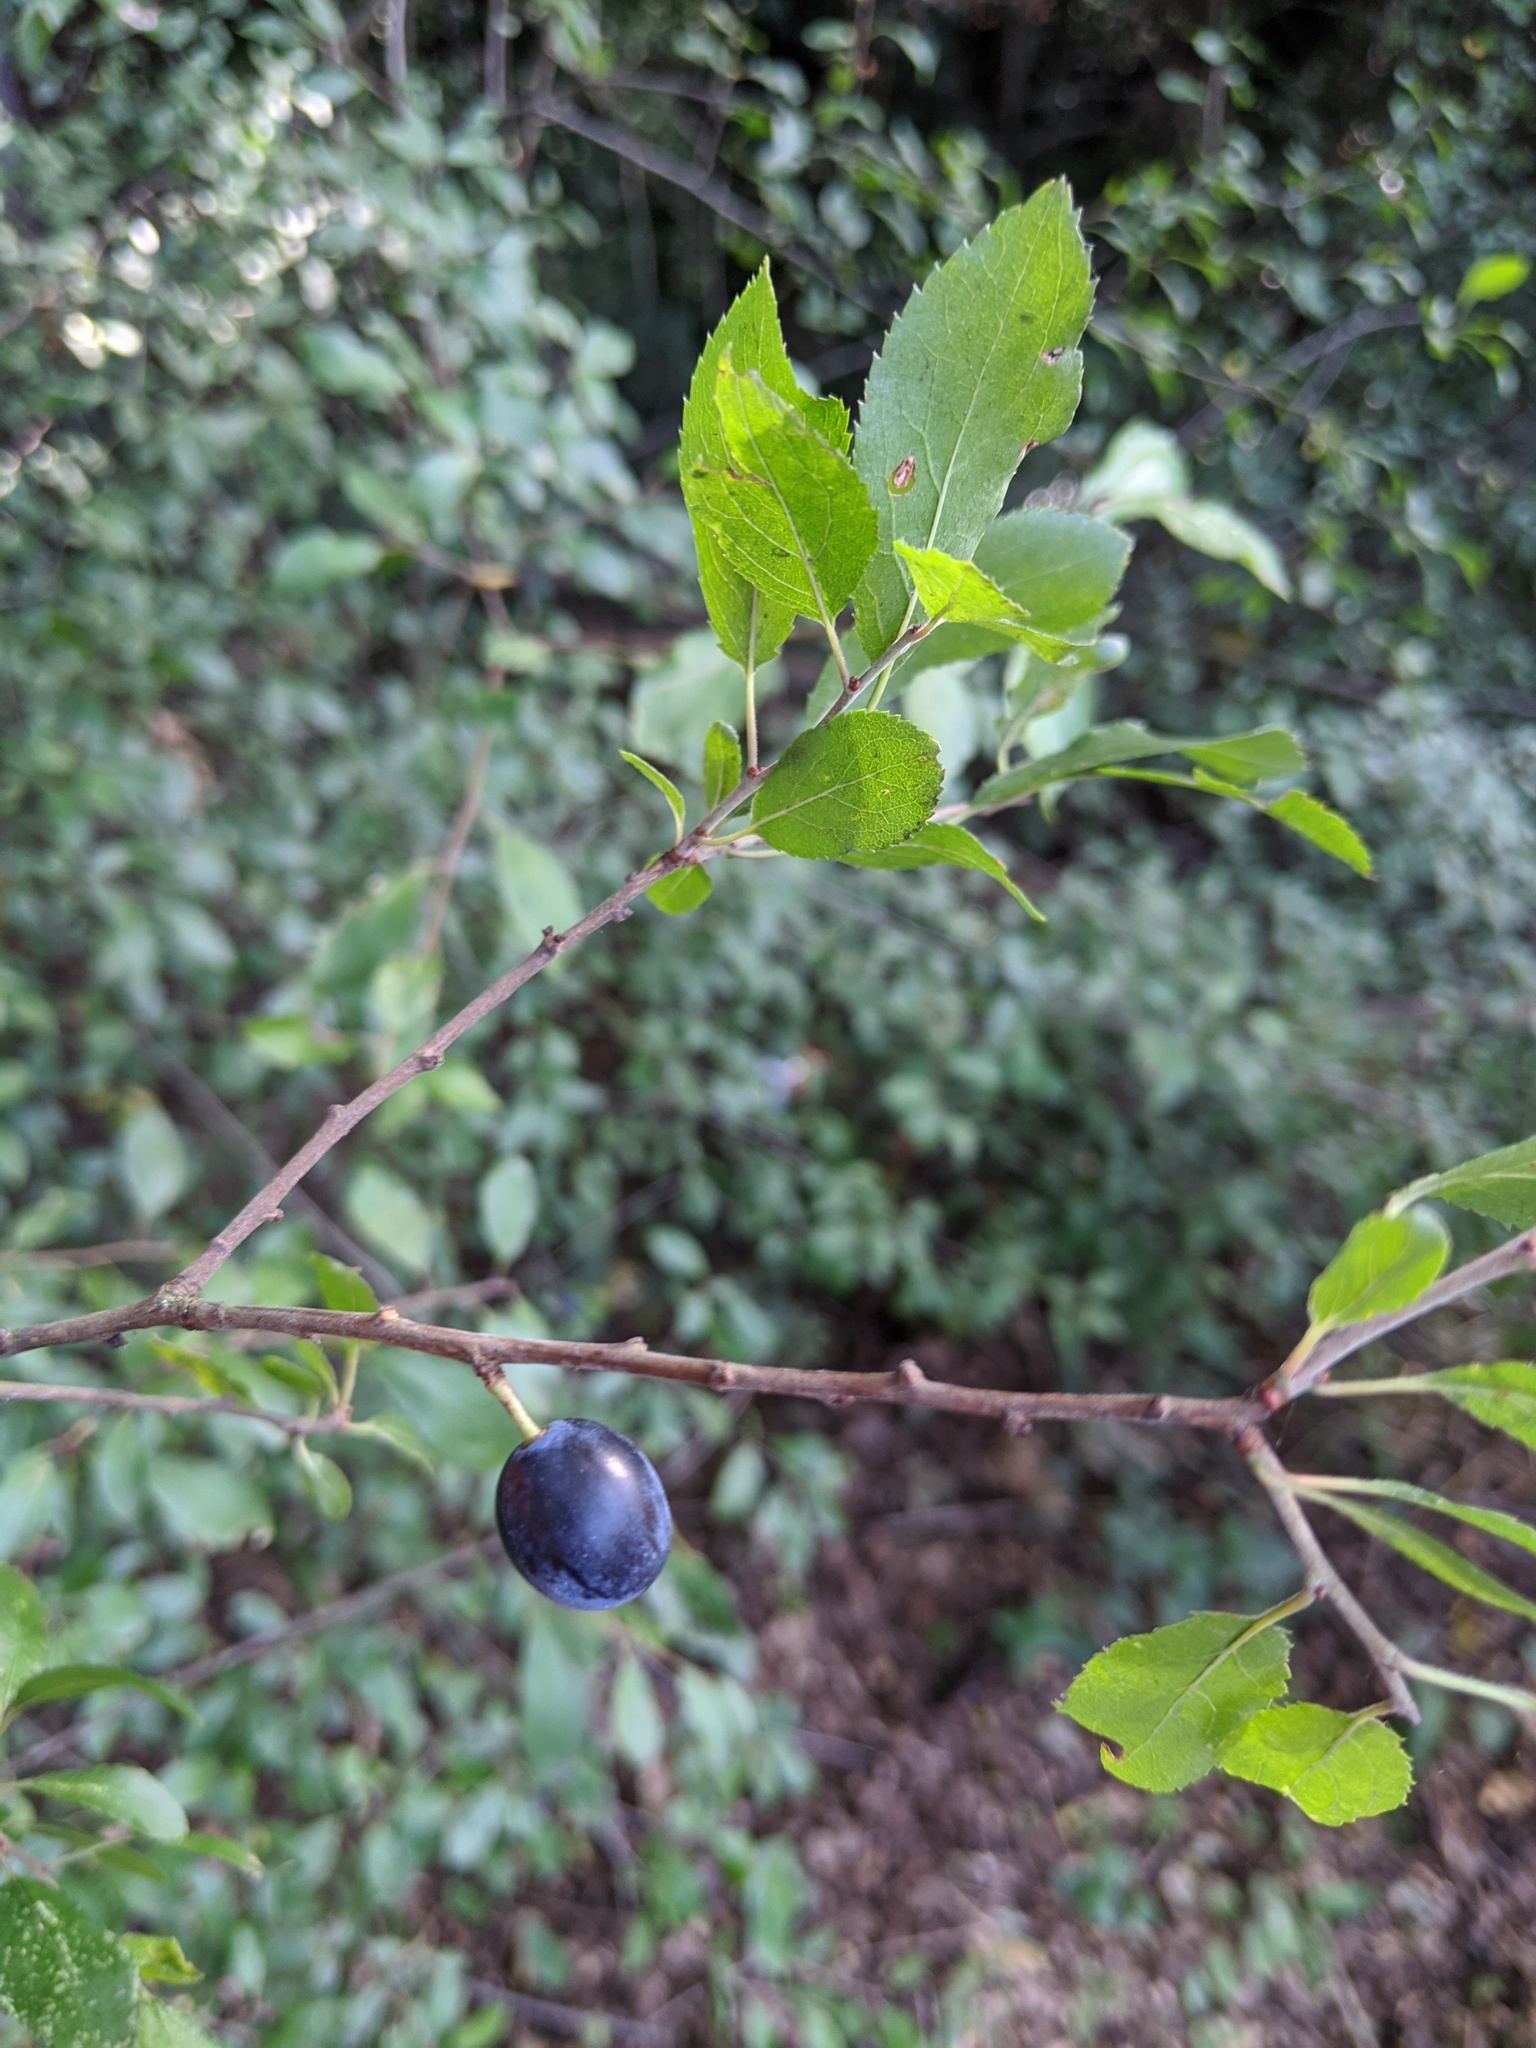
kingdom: Plantae
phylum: Tracheophyta
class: Magnoliopsida
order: Rosales
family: Rosaceae
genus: Prunus
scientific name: Prunus spinosa
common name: Blackthorn
